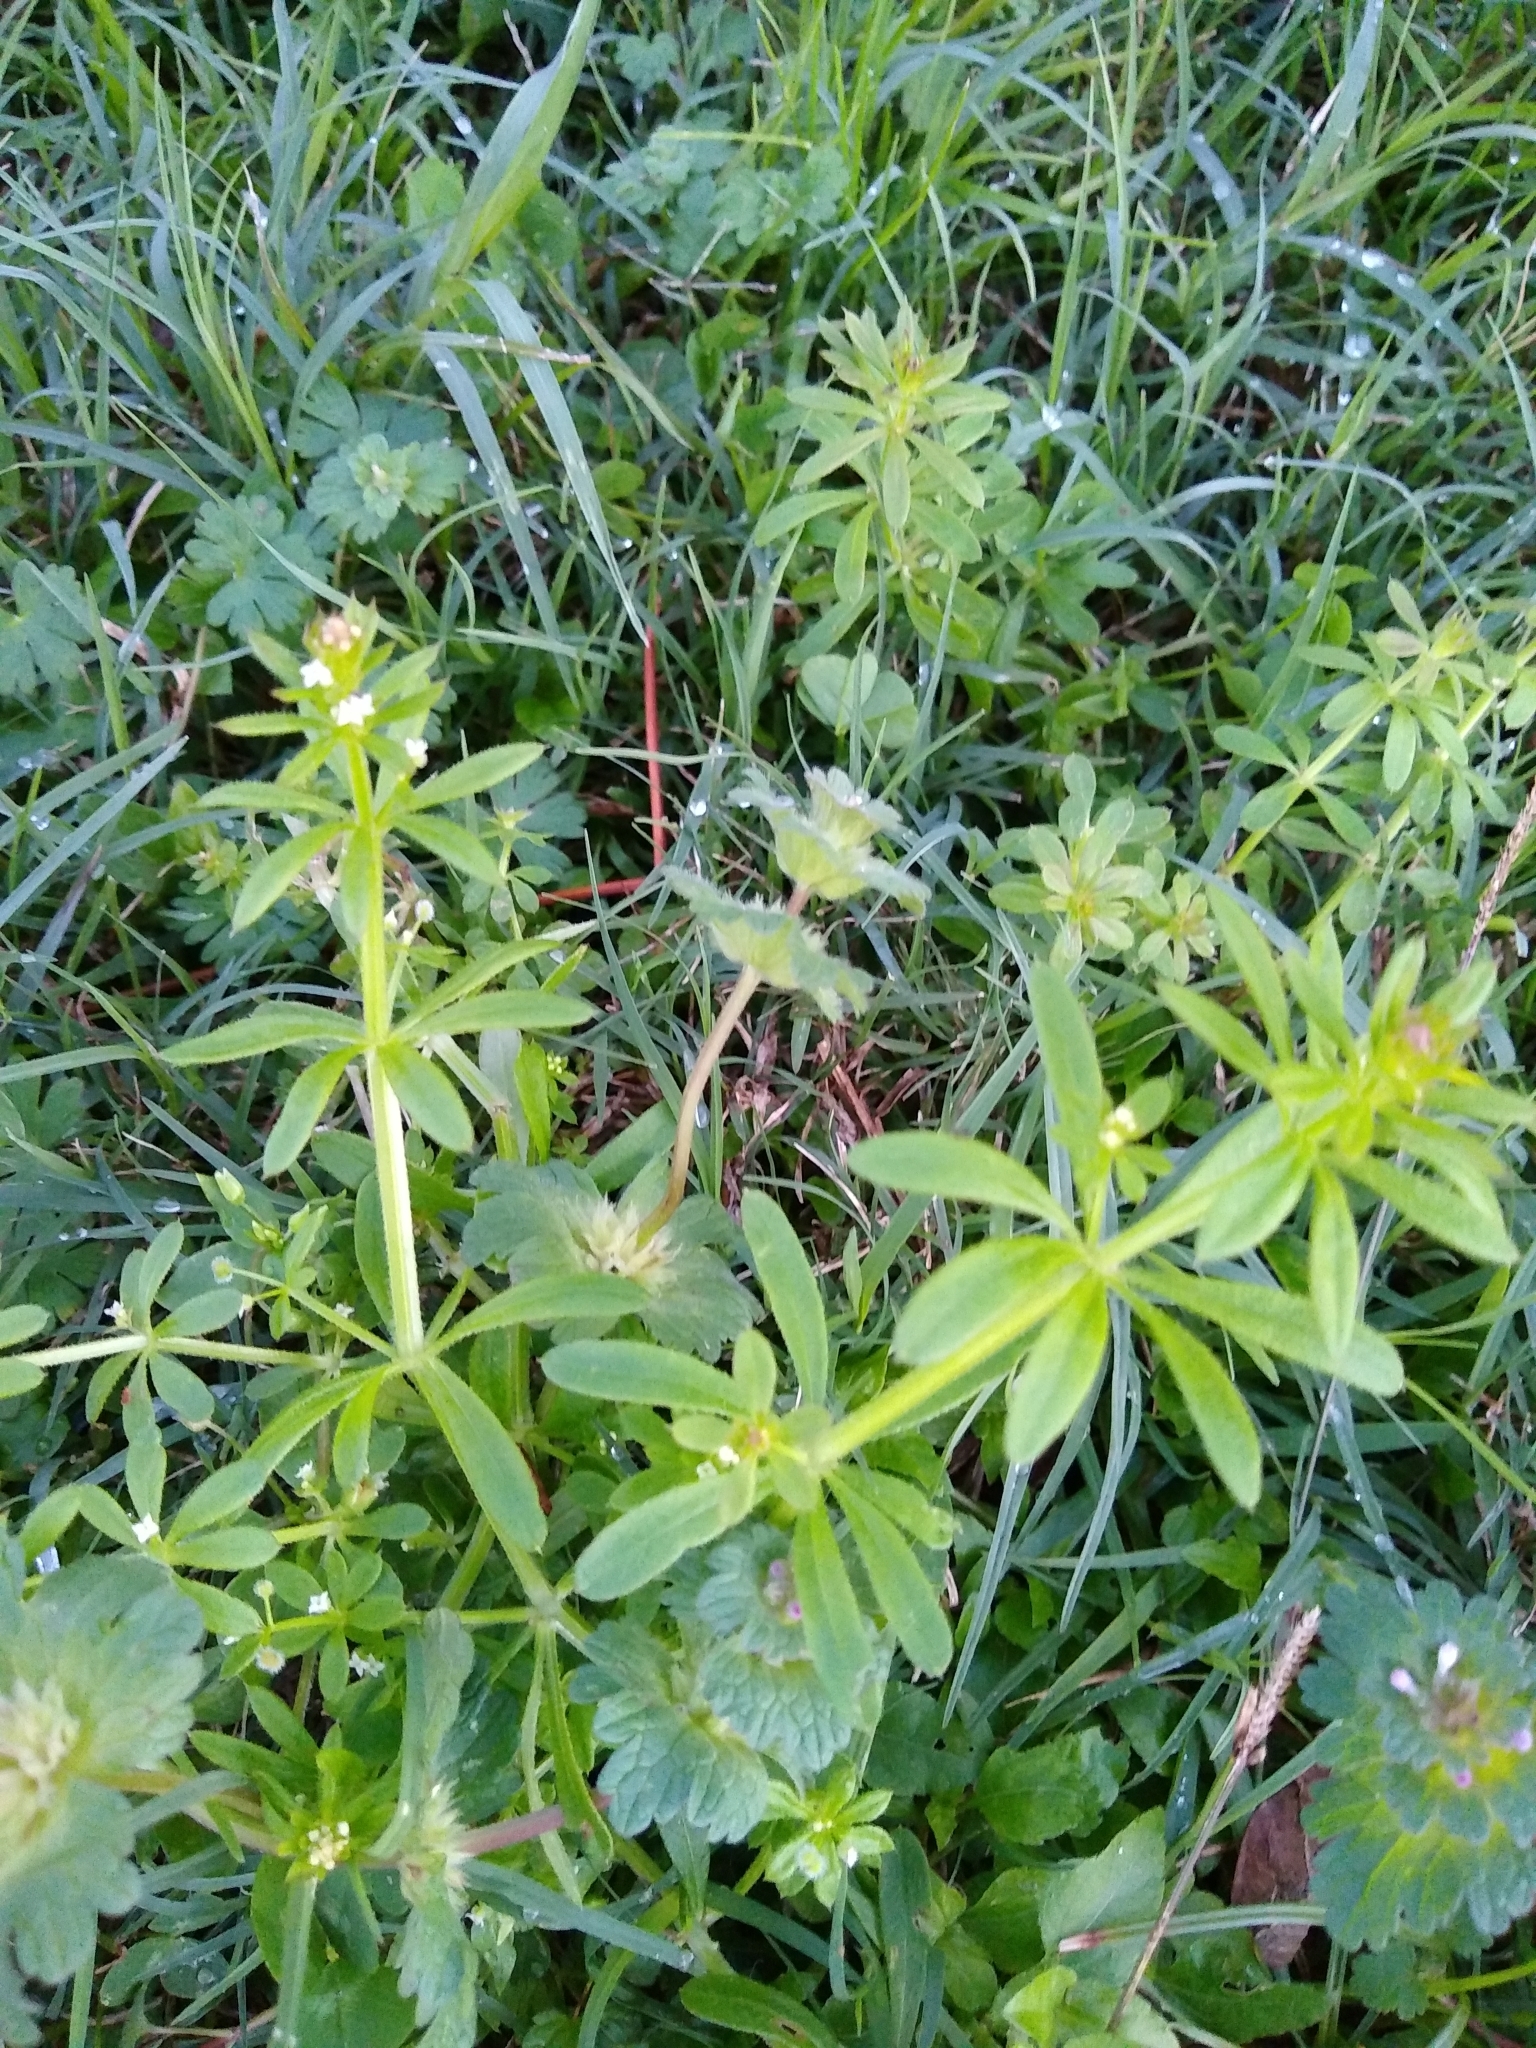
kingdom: Plantae
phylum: Tracheophyta
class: Magnoliopsida
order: Gentianales
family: Rubiaceae
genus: Galium
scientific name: Galium aparine
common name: Cleavers
